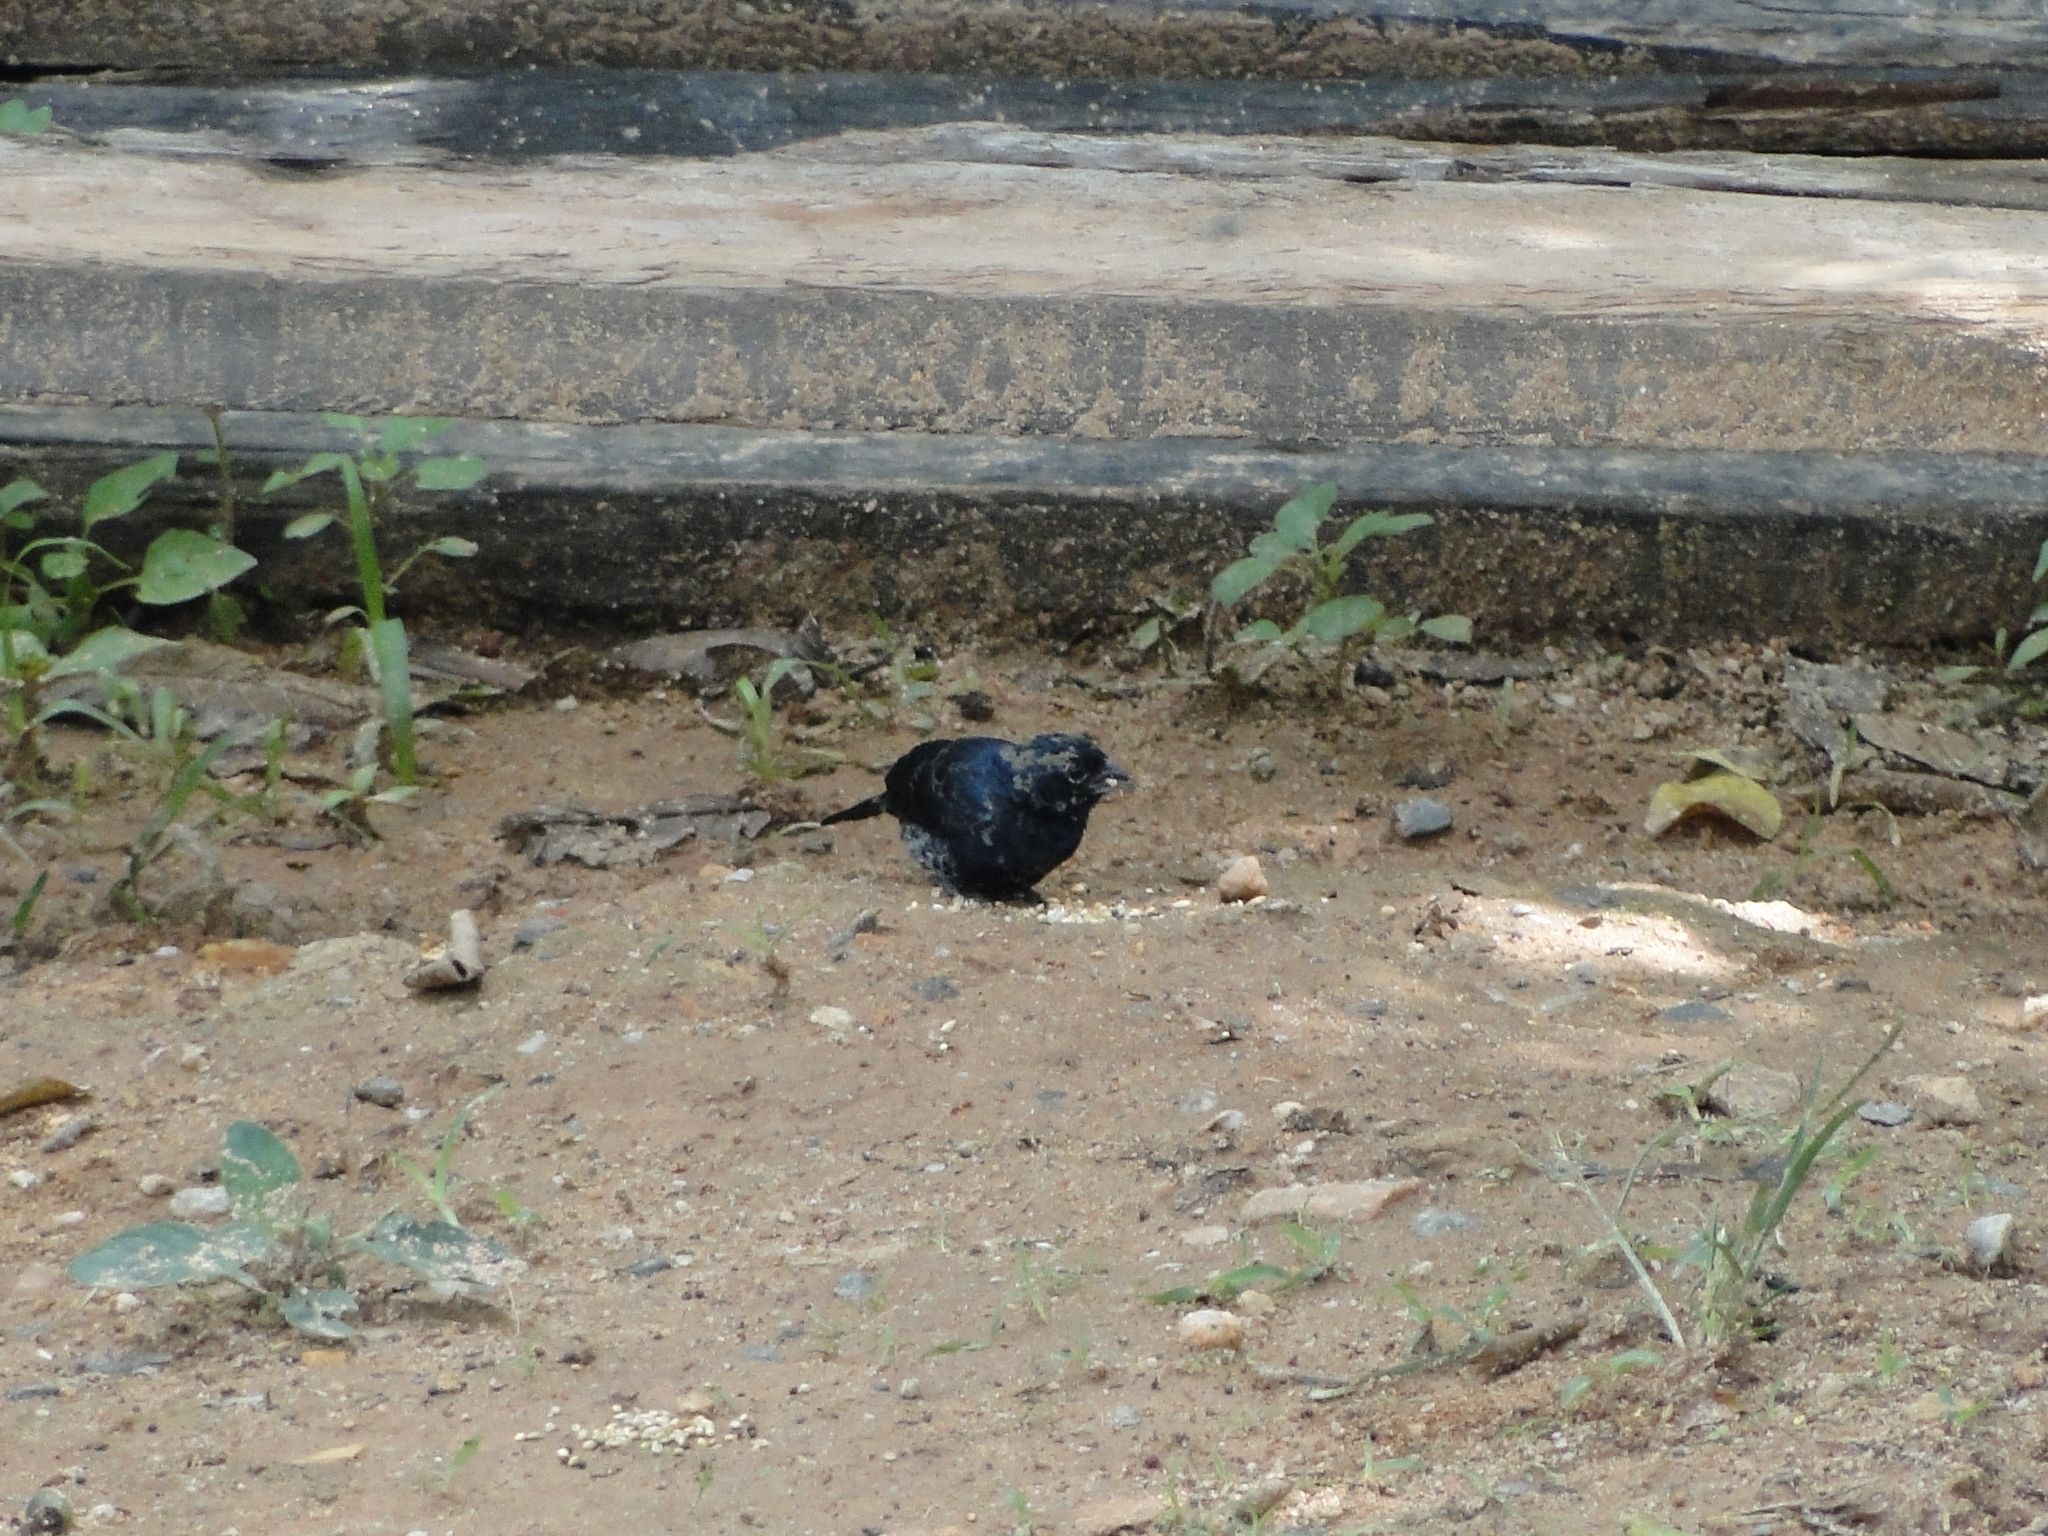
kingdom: Animalia
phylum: Chordata
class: Aves
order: Passeriformes
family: Thraupidae
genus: Volatinia
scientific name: Volatinia jacarina
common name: Blue-black grassquit
